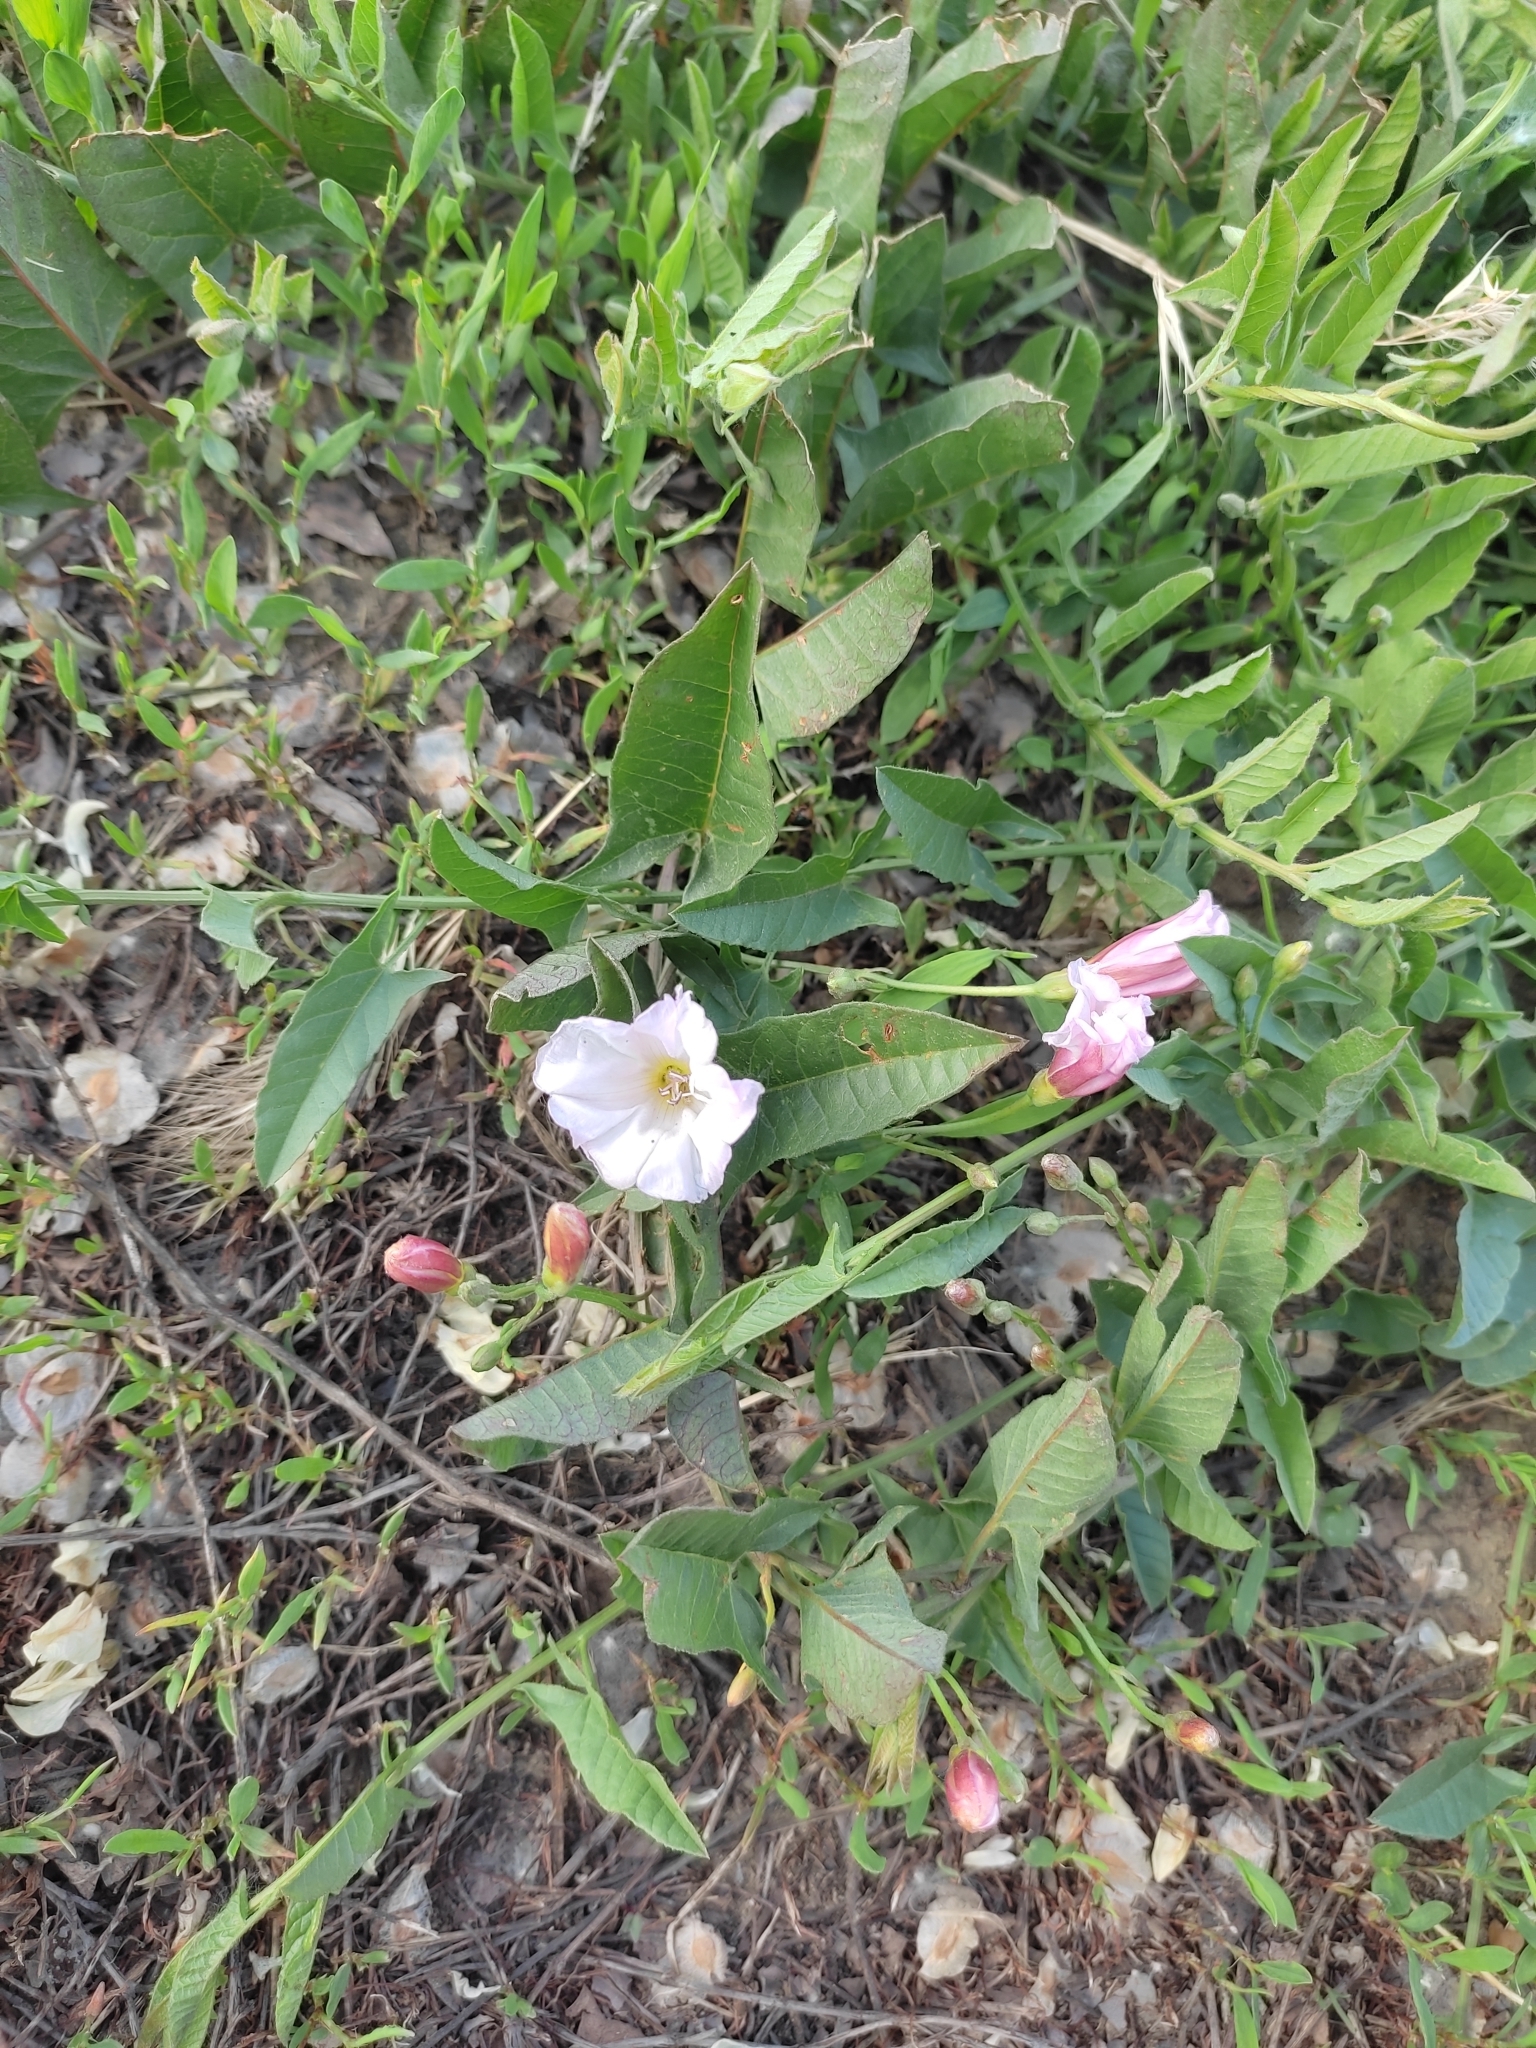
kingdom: Plantae
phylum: Tracheophyta
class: Magnoliopsida
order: Solanales
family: Convolvulaceae
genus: Convolvulus
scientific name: Convolvulus arvensis
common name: Field bindweed
